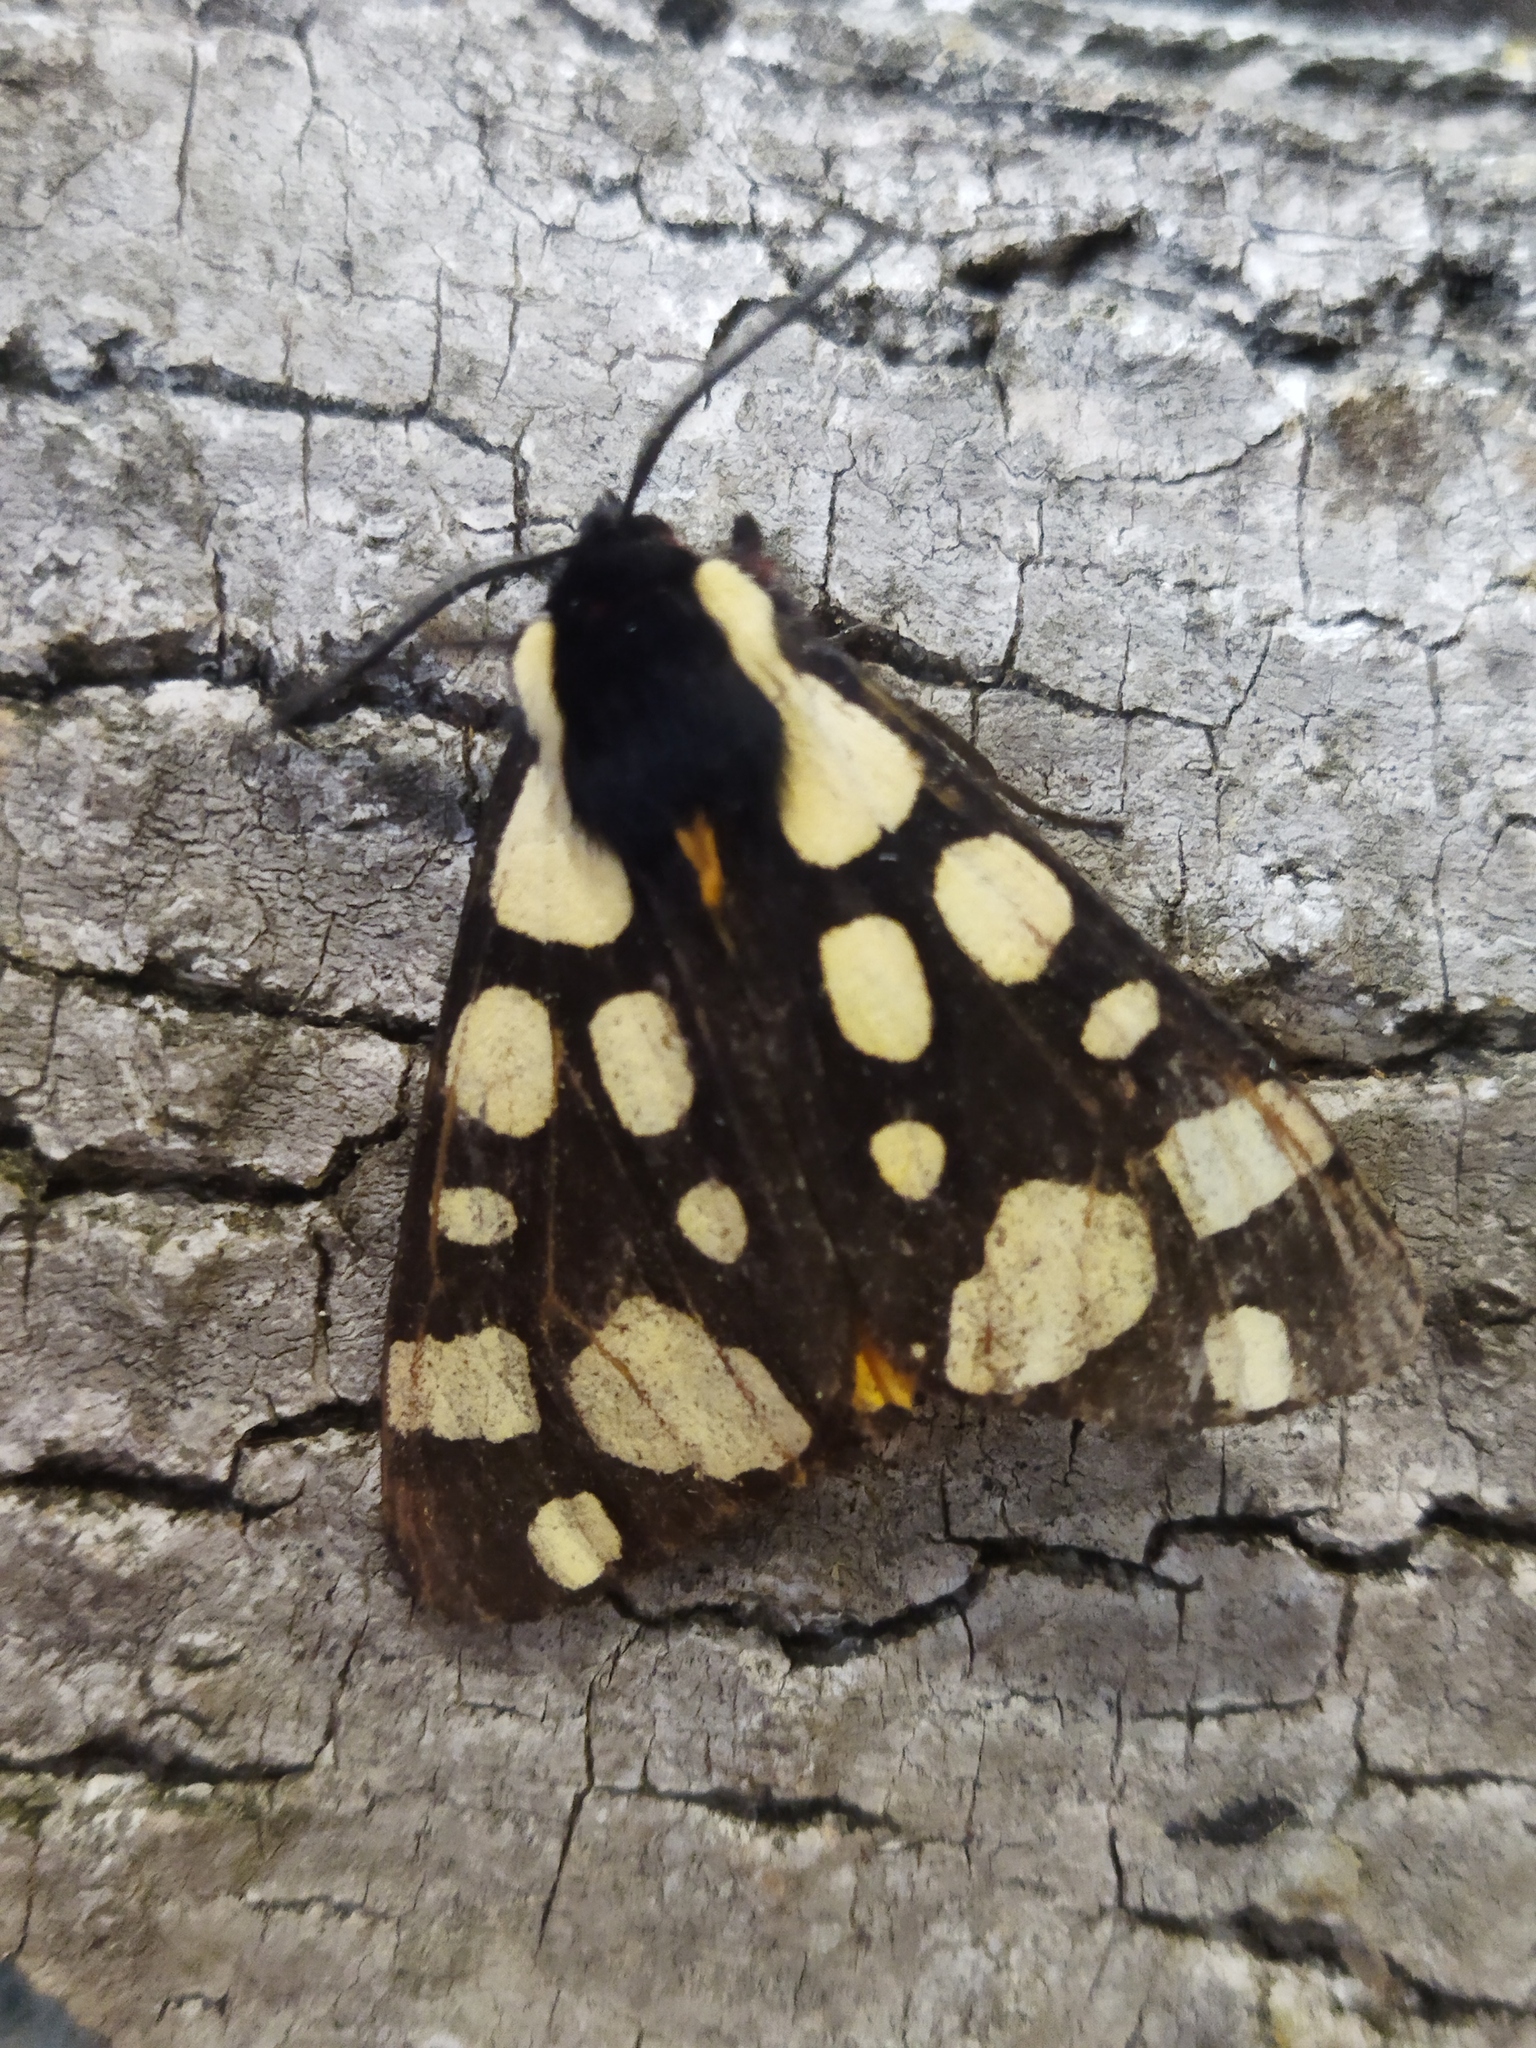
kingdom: Animalia
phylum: Arthropoda
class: Insecta
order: Lepidoptera
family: Erebidae
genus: Epicallia
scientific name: Epicallia villica
